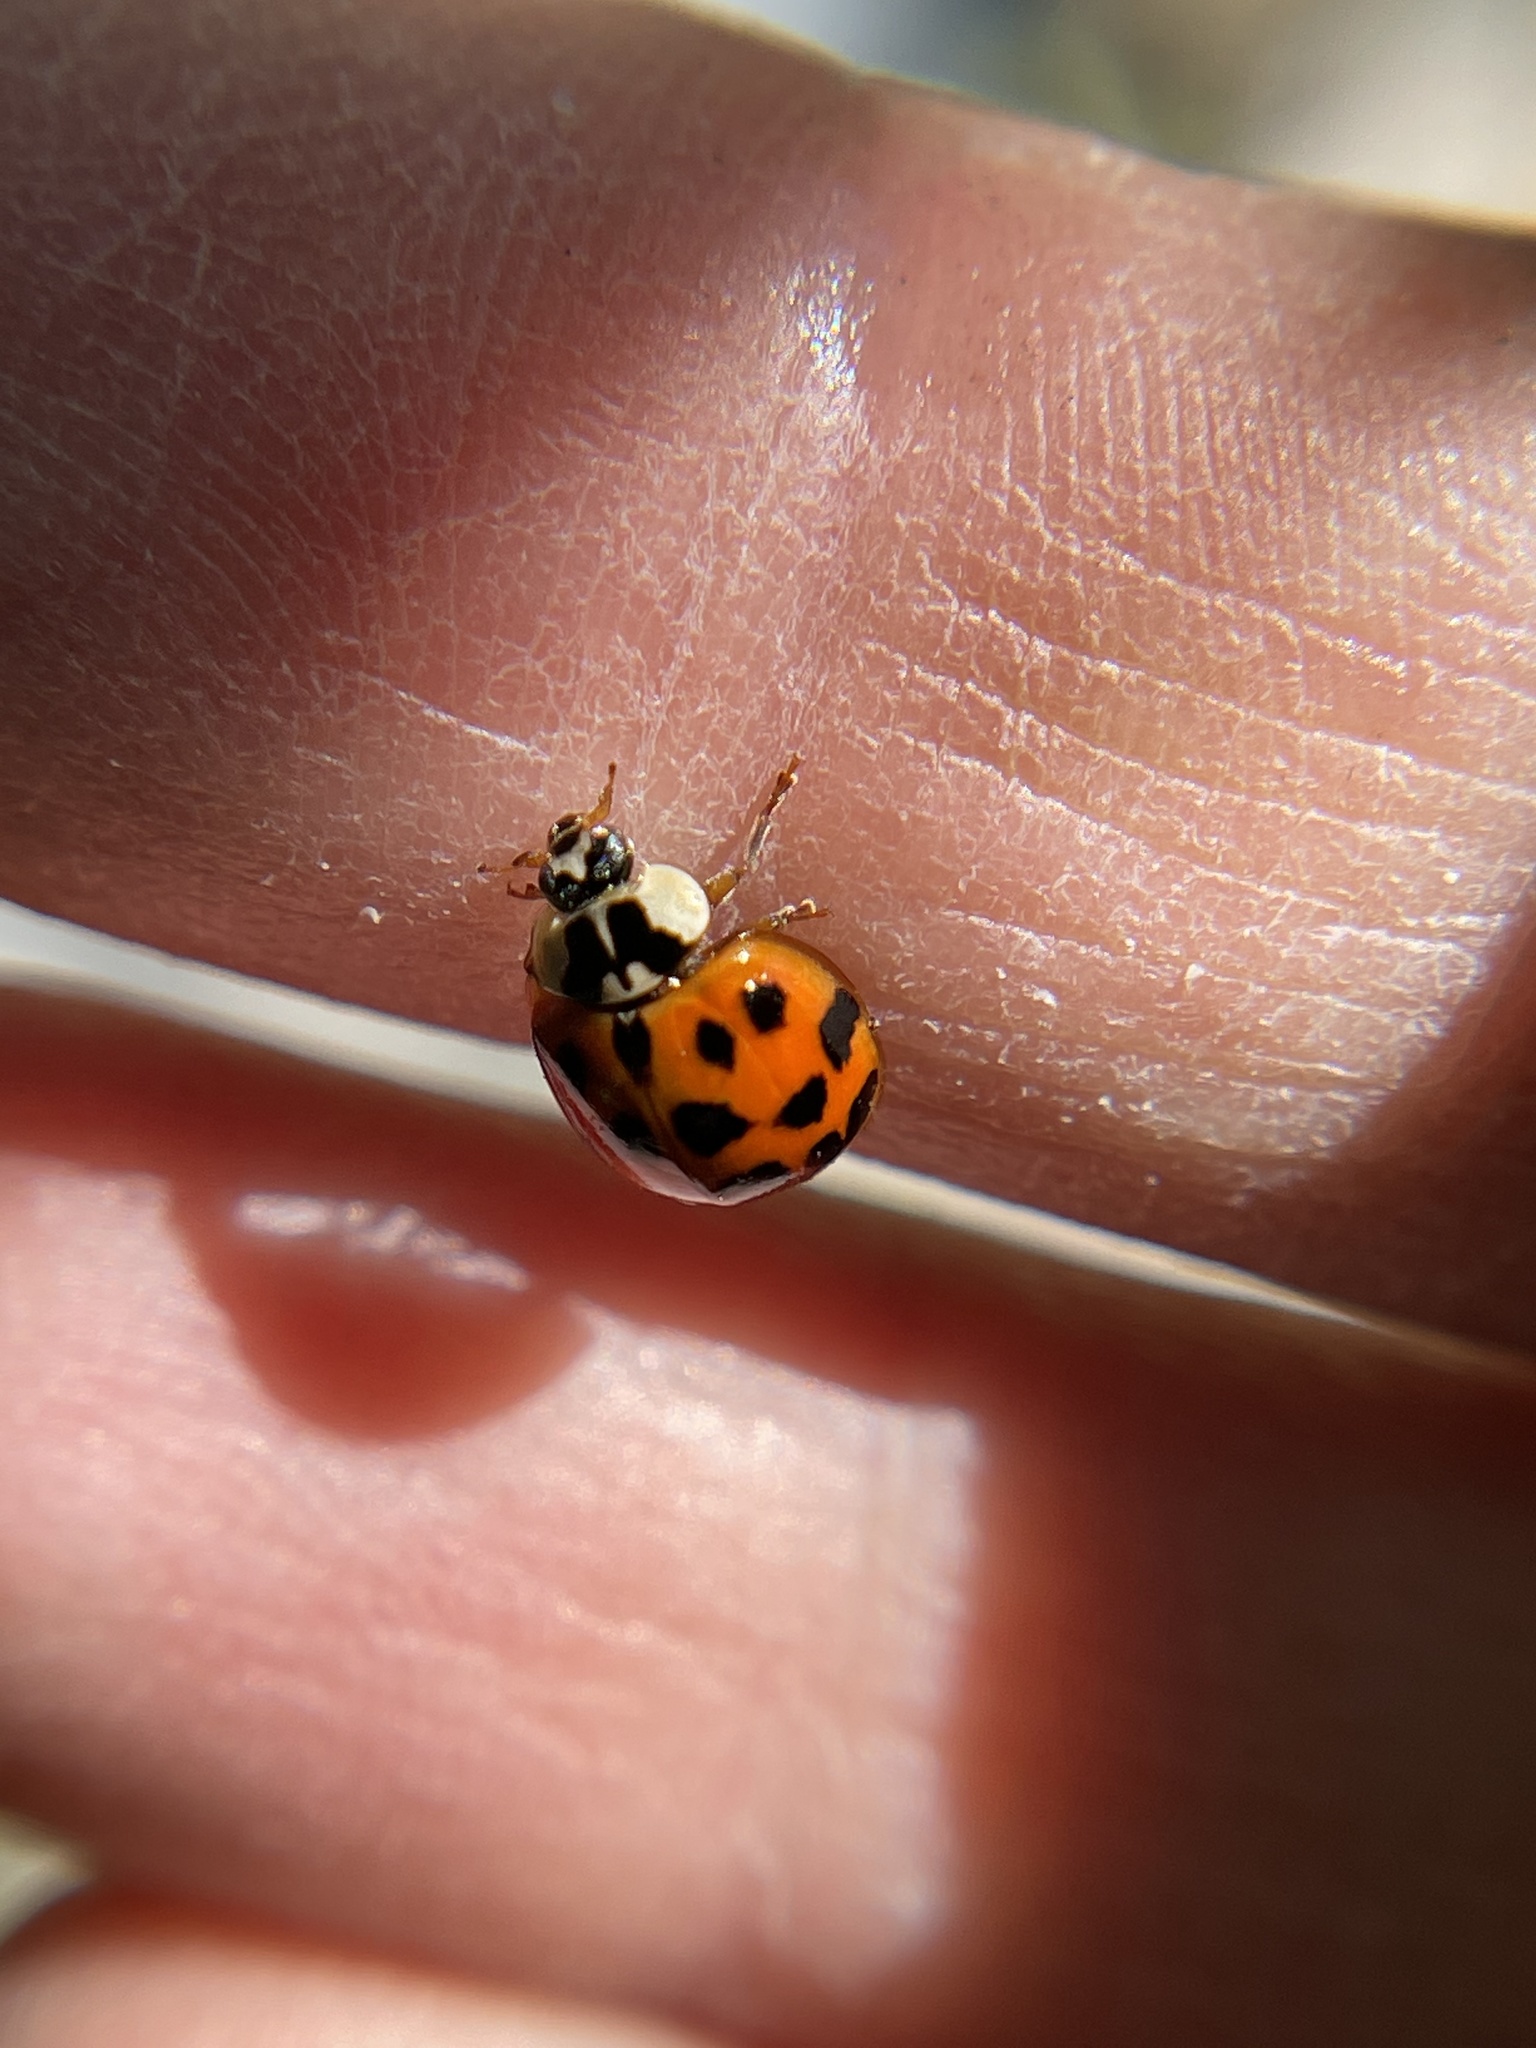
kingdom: Animalia
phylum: Arthropoda
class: Insecta
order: Coleoptera
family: Coccinellidae
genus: Harmonia
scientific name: Harmonia axyridis
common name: Harlequin ladybird
